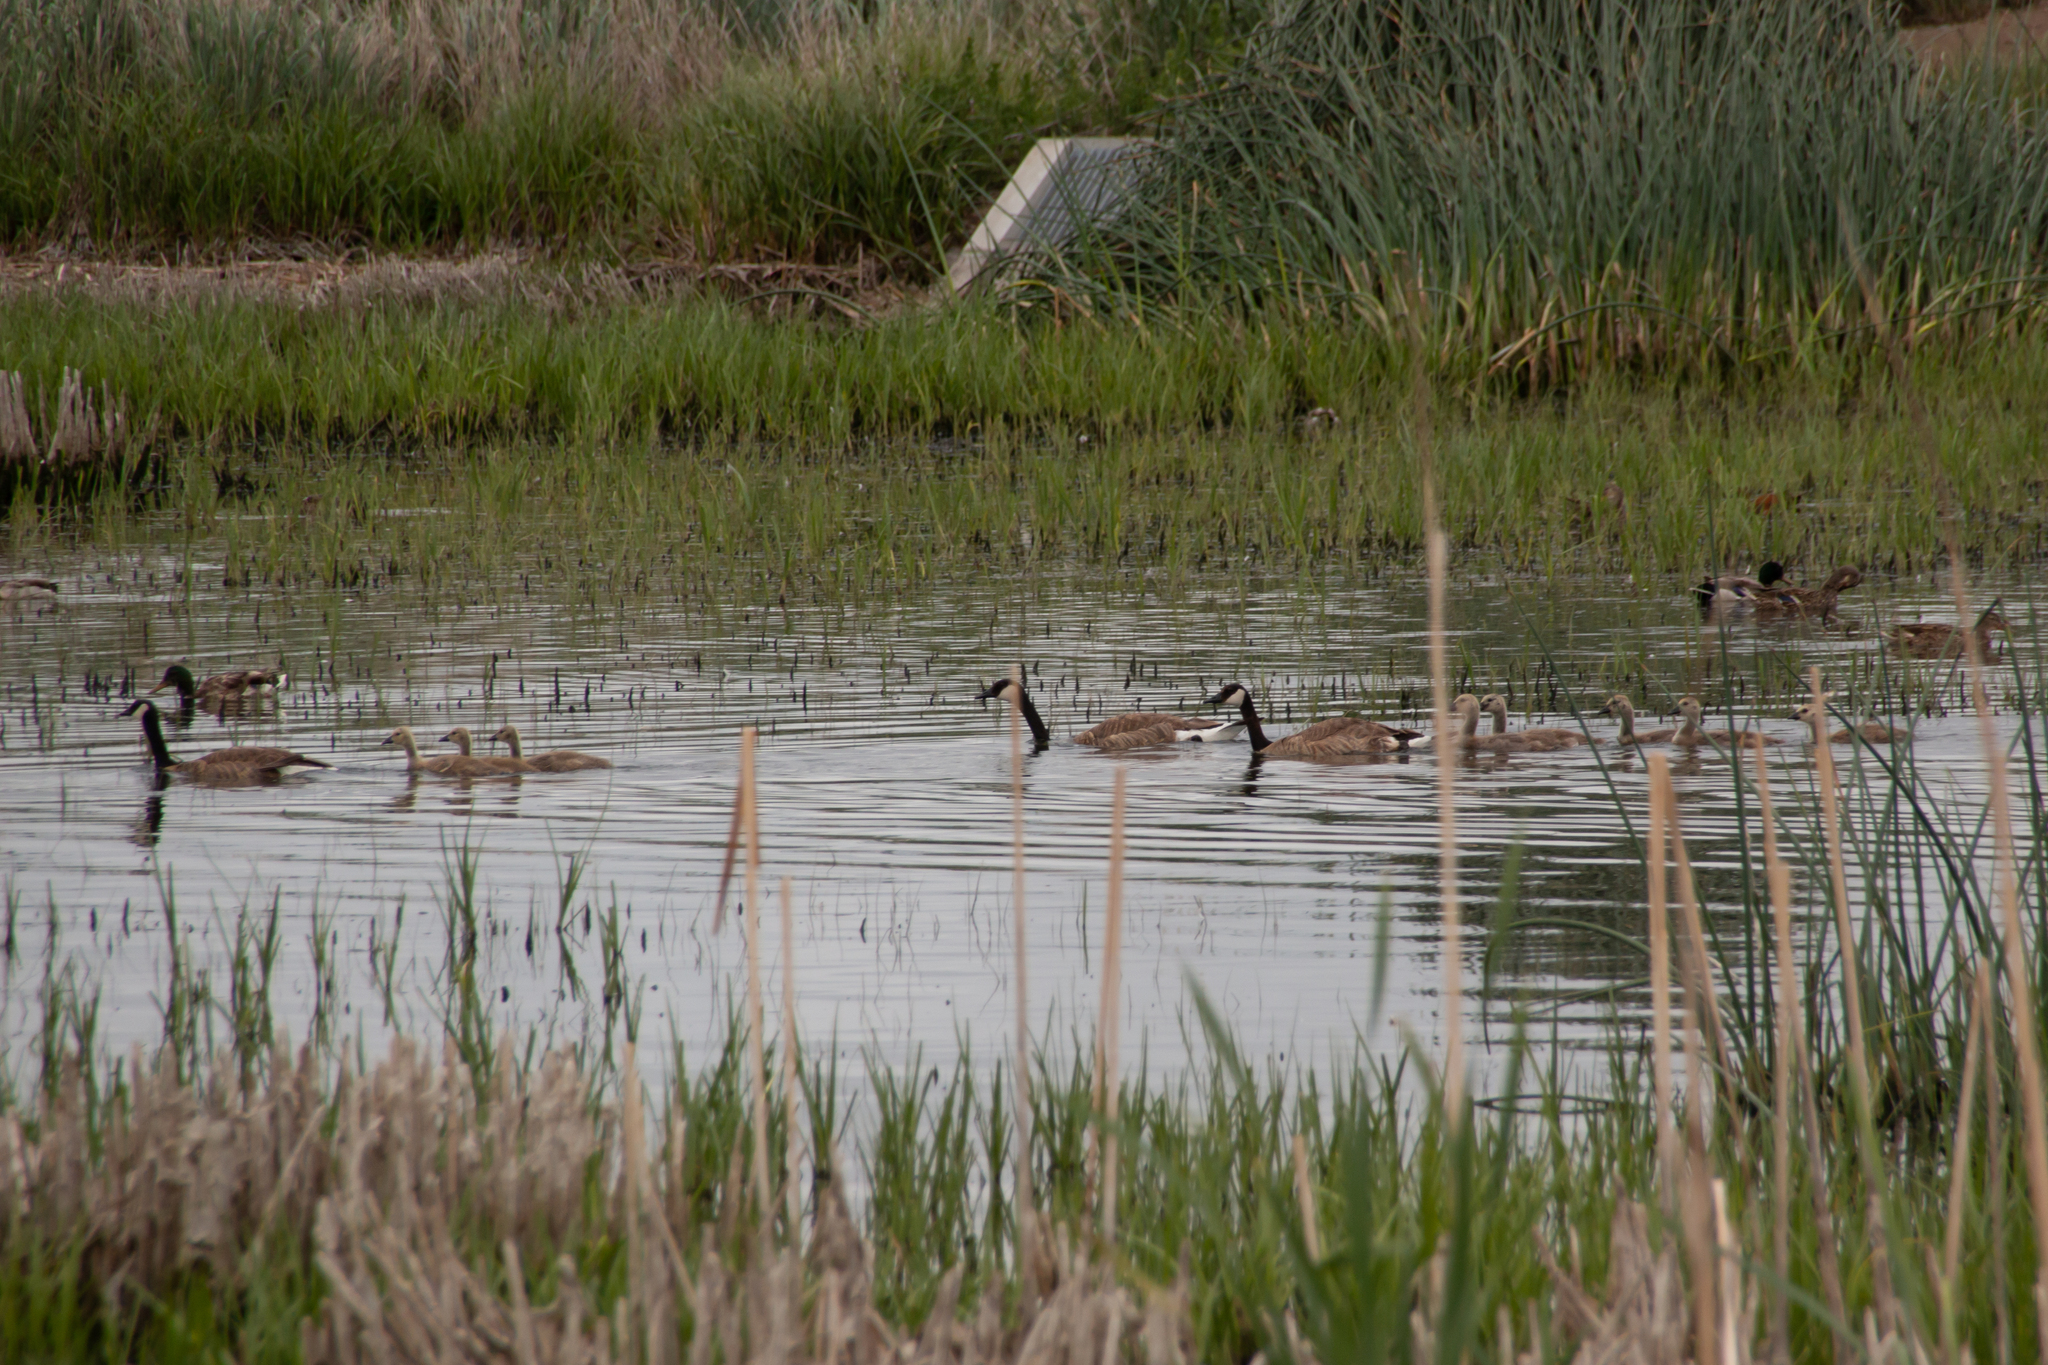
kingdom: Animalia
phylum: Chordata
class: Aves
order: Anseriformes
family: Anatidae
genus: Branta
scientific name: Branta canadensis
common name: Canada goose
